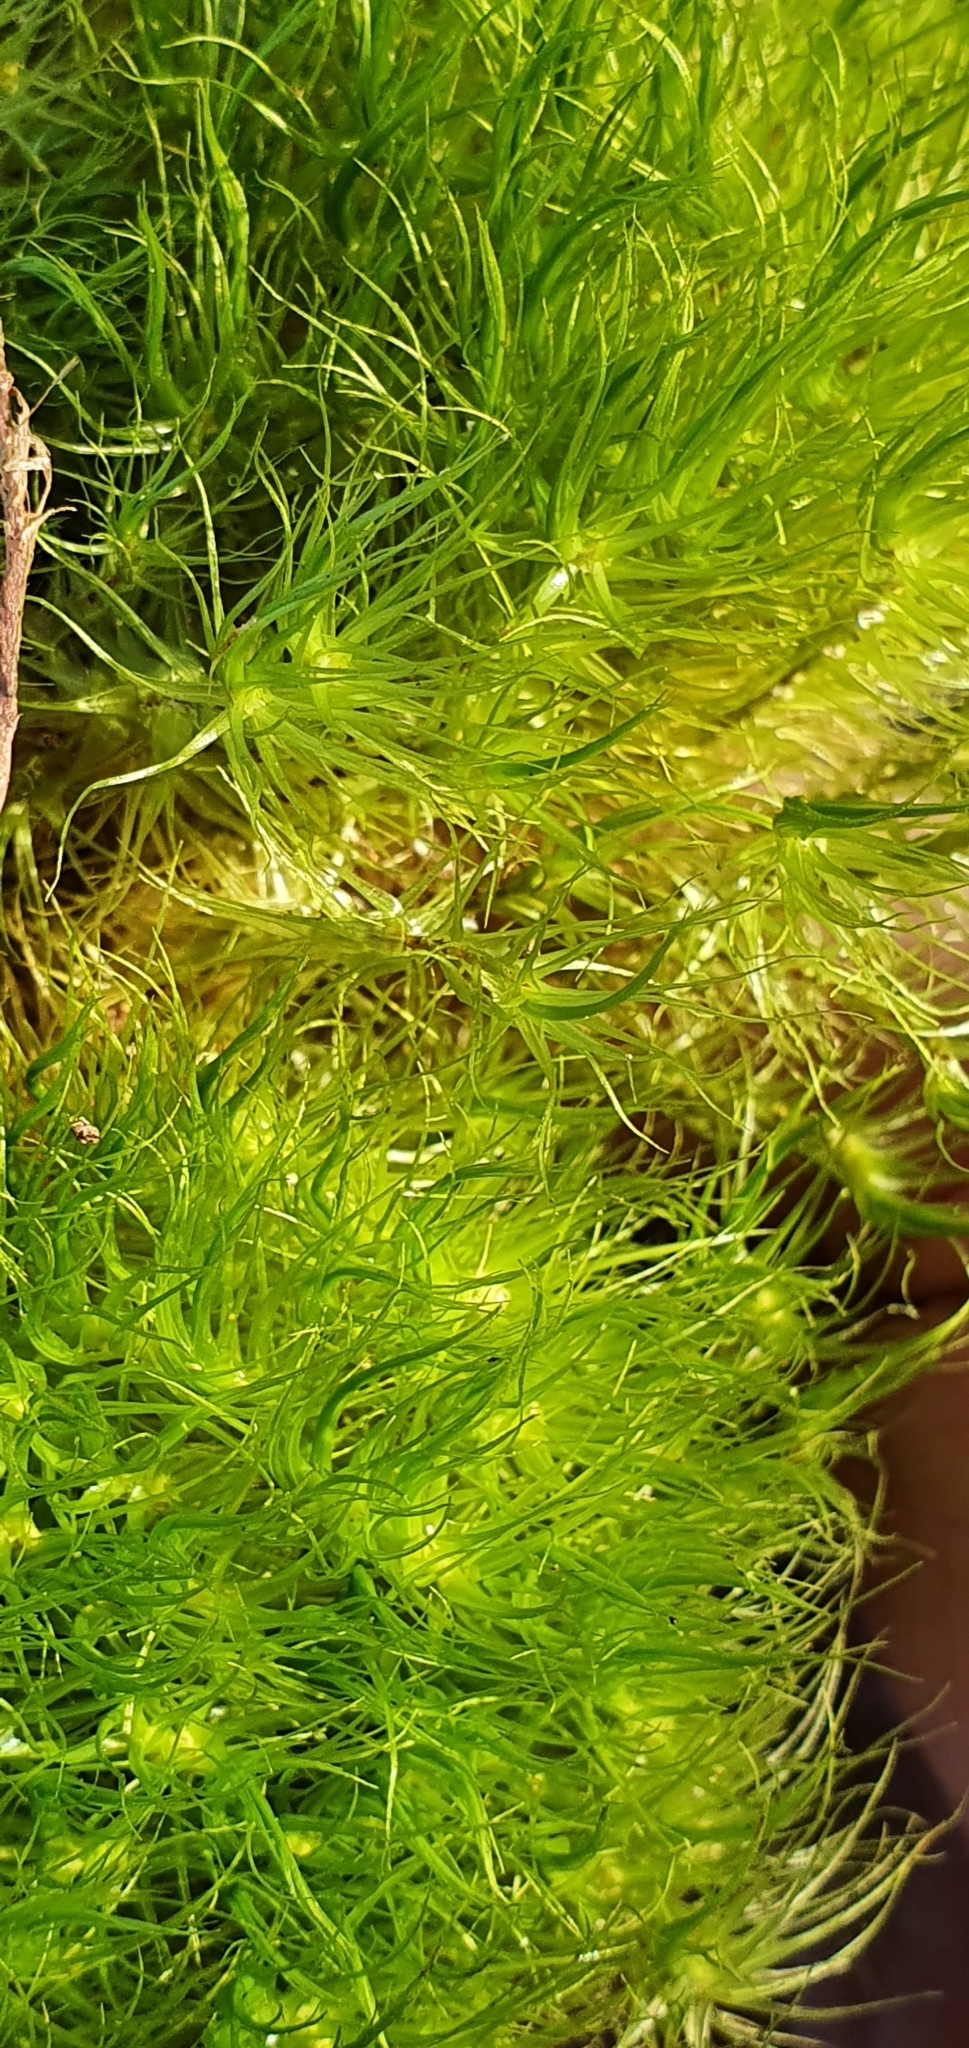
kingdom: Plantae
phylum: Bryophyta
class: Bryopsida
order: Dicranales
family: Dicranaceae
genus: Dicranum
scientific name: Dicranum majus
